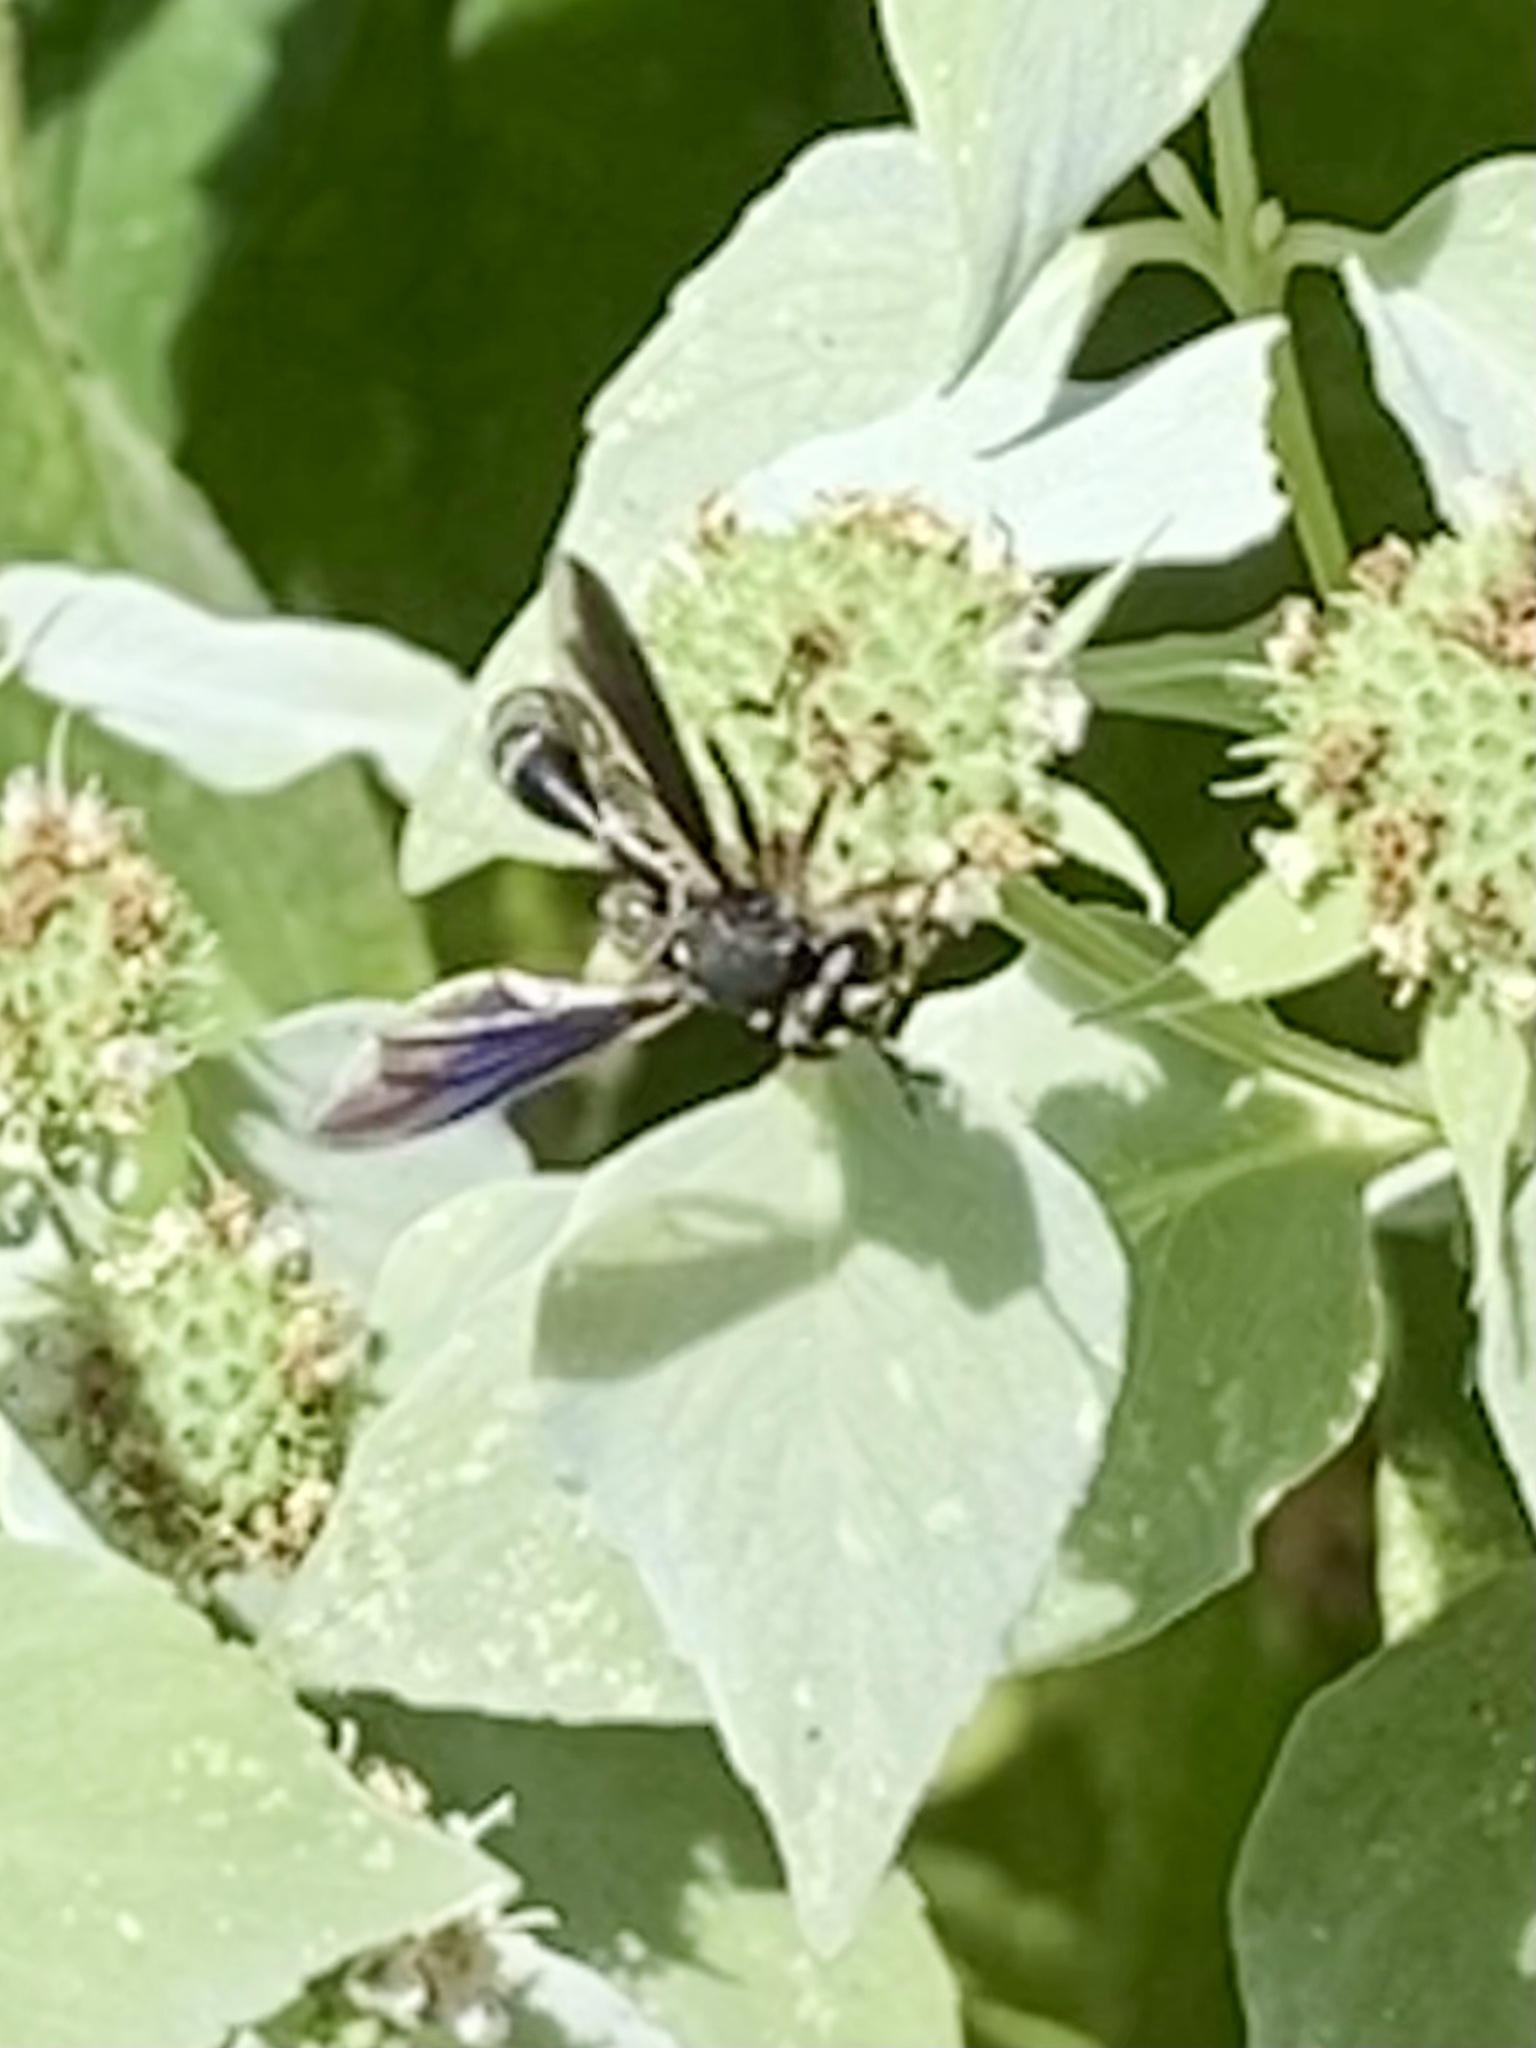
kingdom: Animalia
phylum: Arthropoda
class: Insecta
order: Diptera
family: Conopidae
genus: Physocephala
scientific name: Physocephala tibialis
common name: Common eastern physocephala
